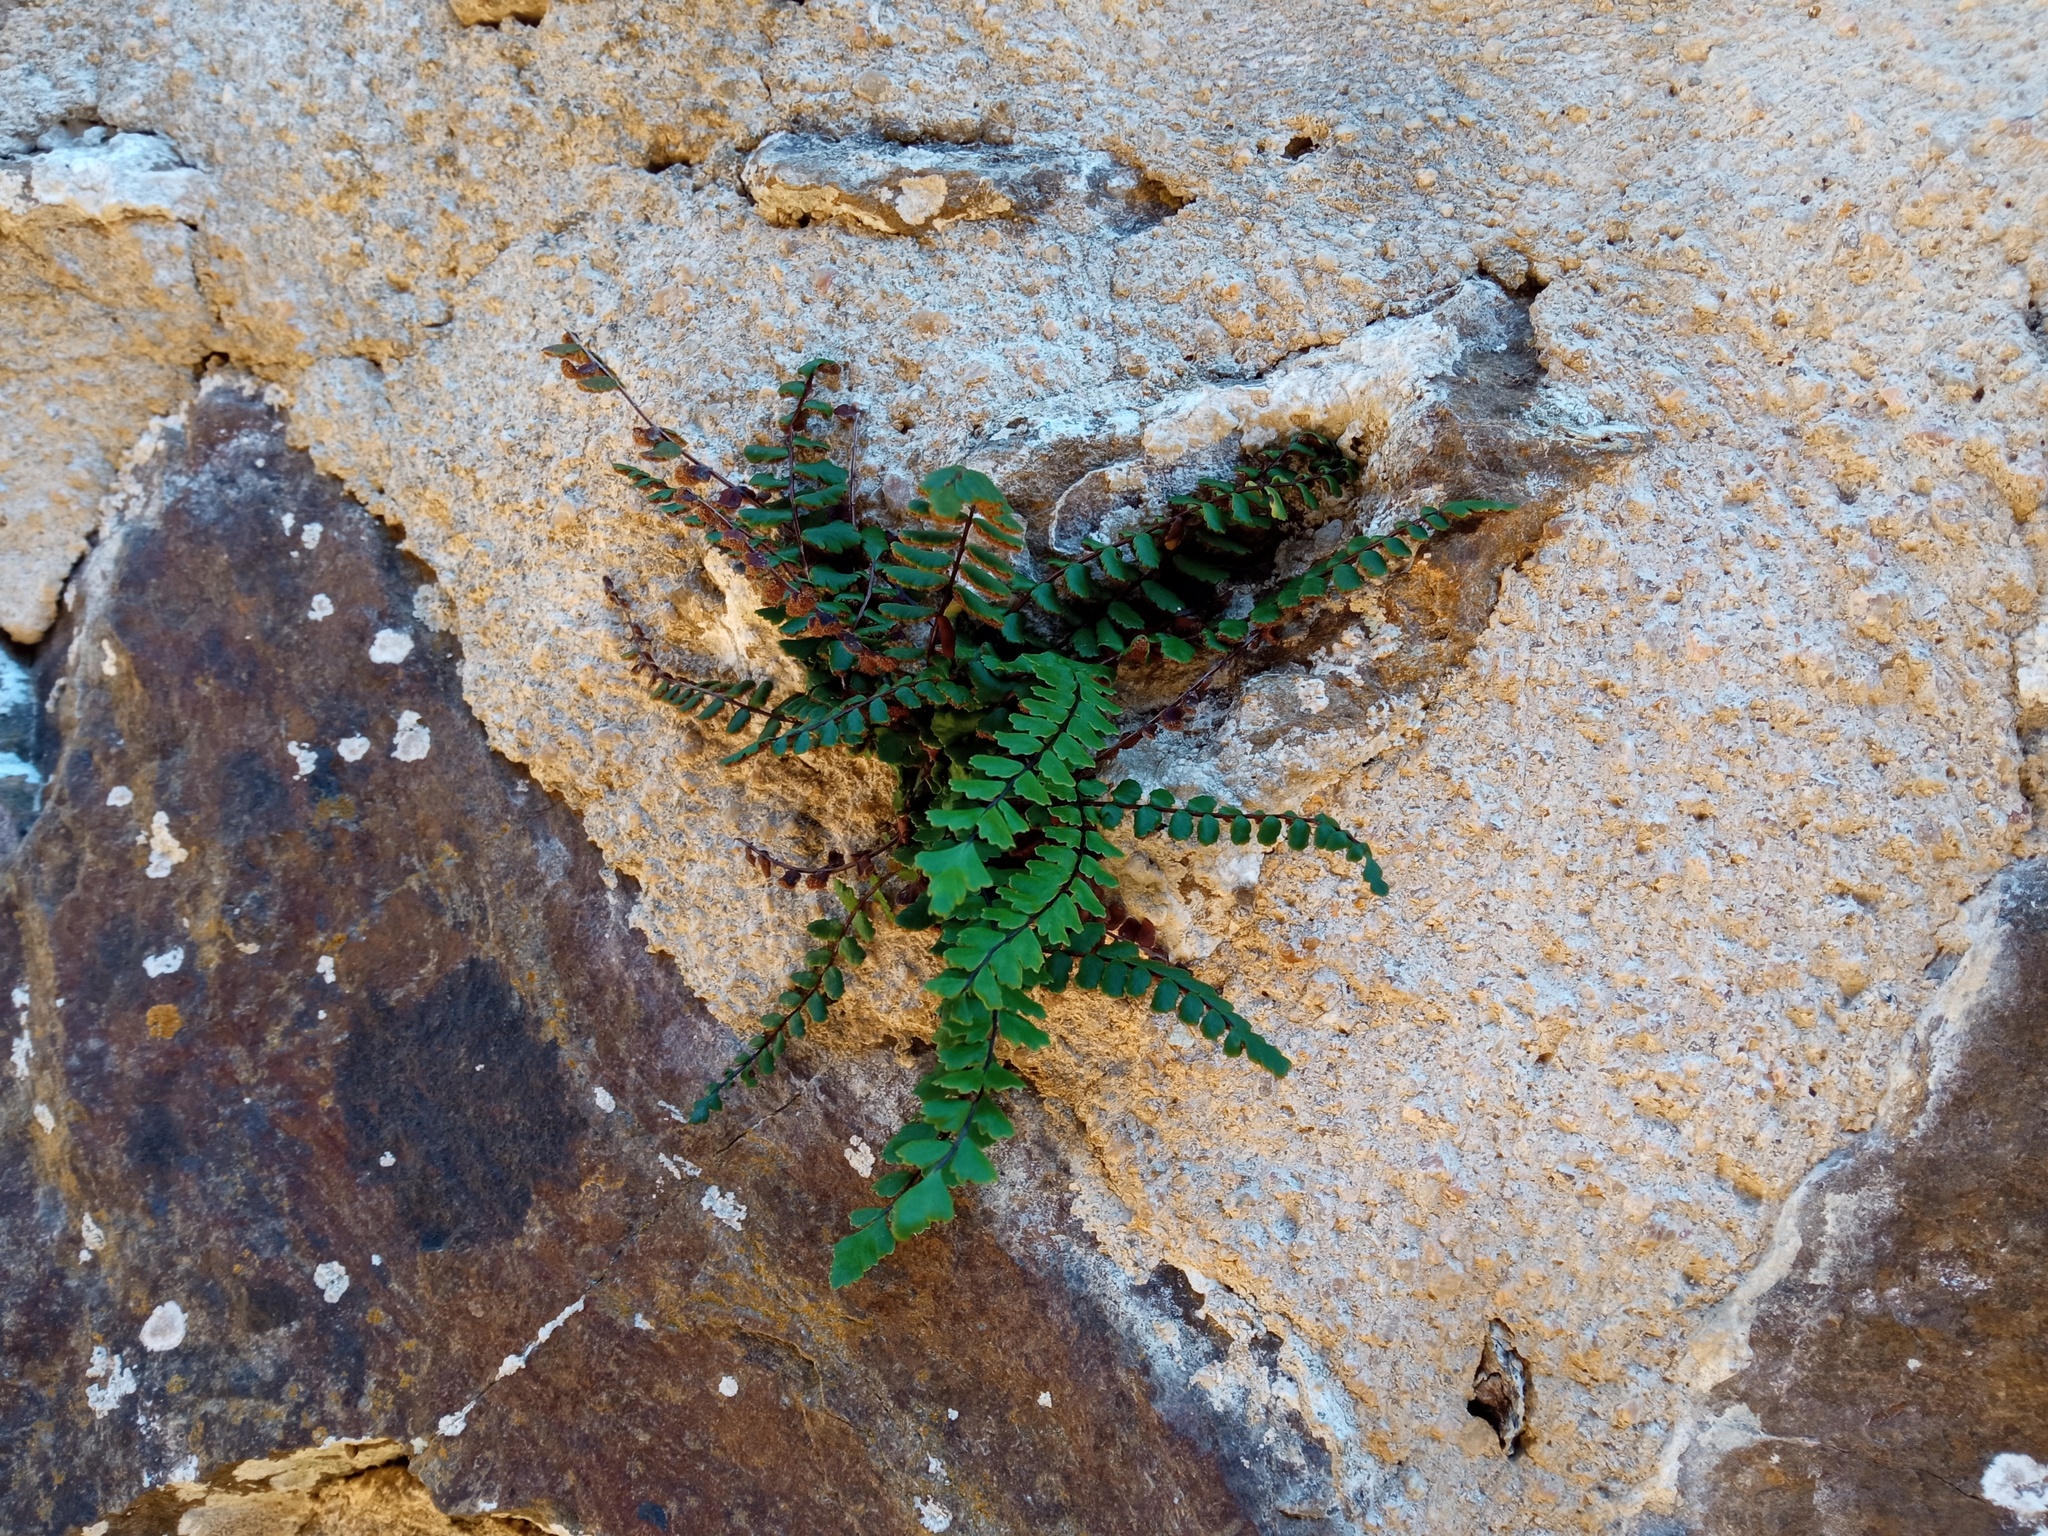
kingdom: Plantae
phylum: Tracheophyta
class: Polypodiopsida
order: Polypodiales
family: Aspleniaceae
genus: Asplenium
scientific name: Asplenium trichomanes
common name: Maidenhair spleenwort
